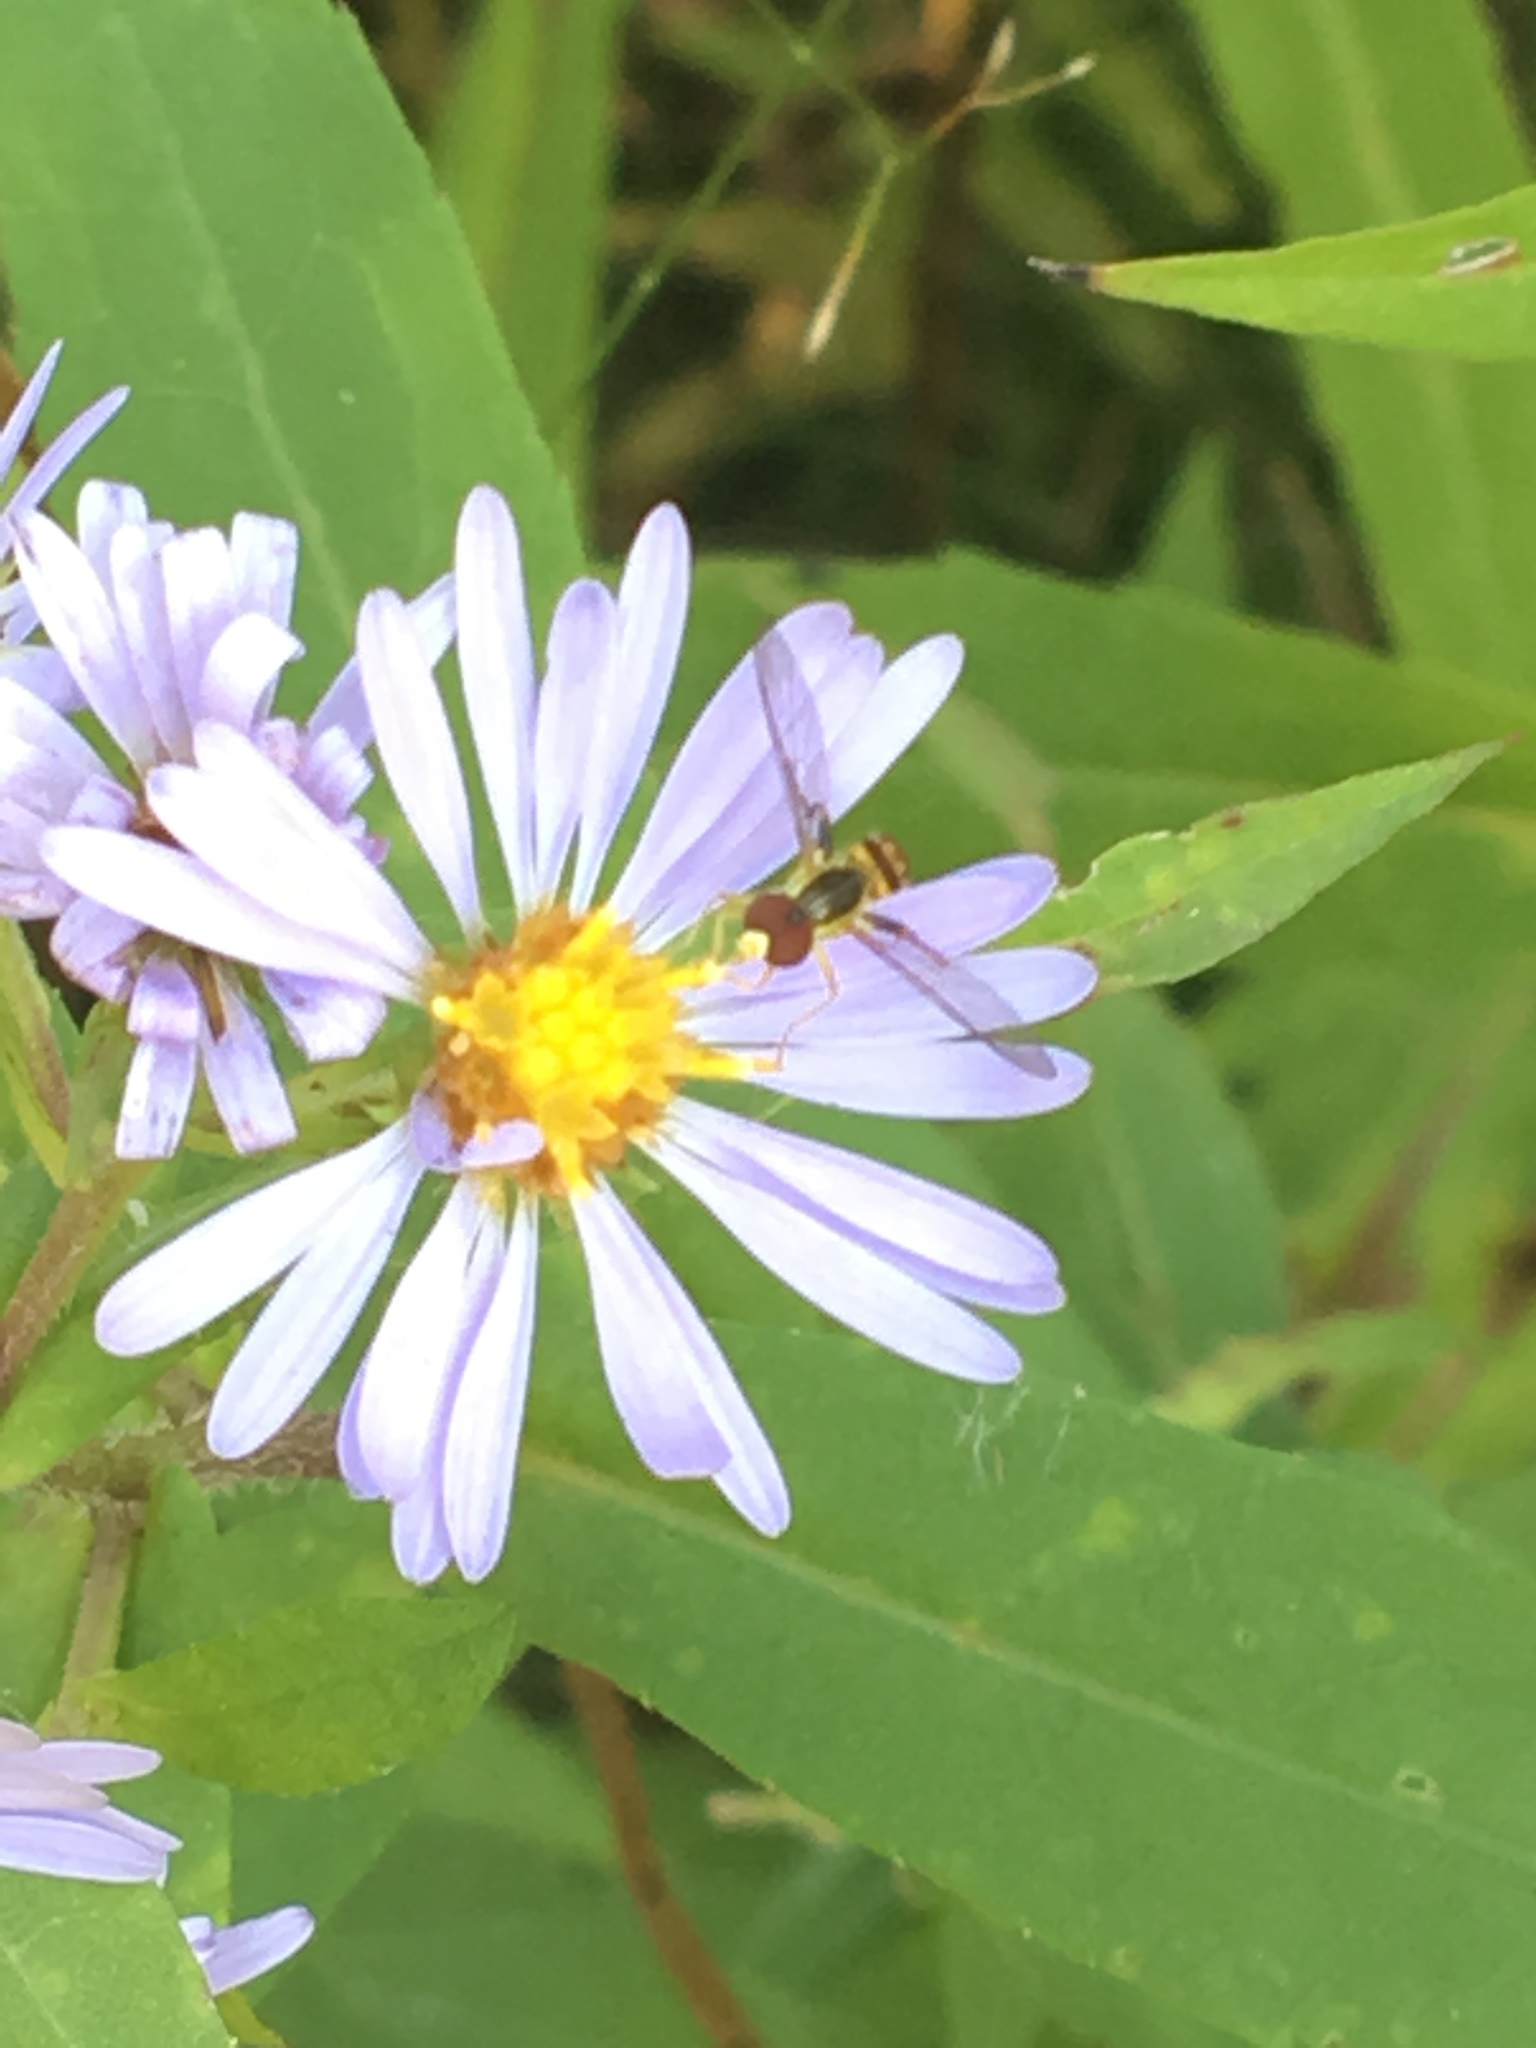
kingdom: Animalia
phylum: Arthropoda
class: Insecta
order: Diptera
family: Syrphidae
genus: Toxomerus
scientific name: Toxomerus geminatus
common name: Eastern calligrapher
